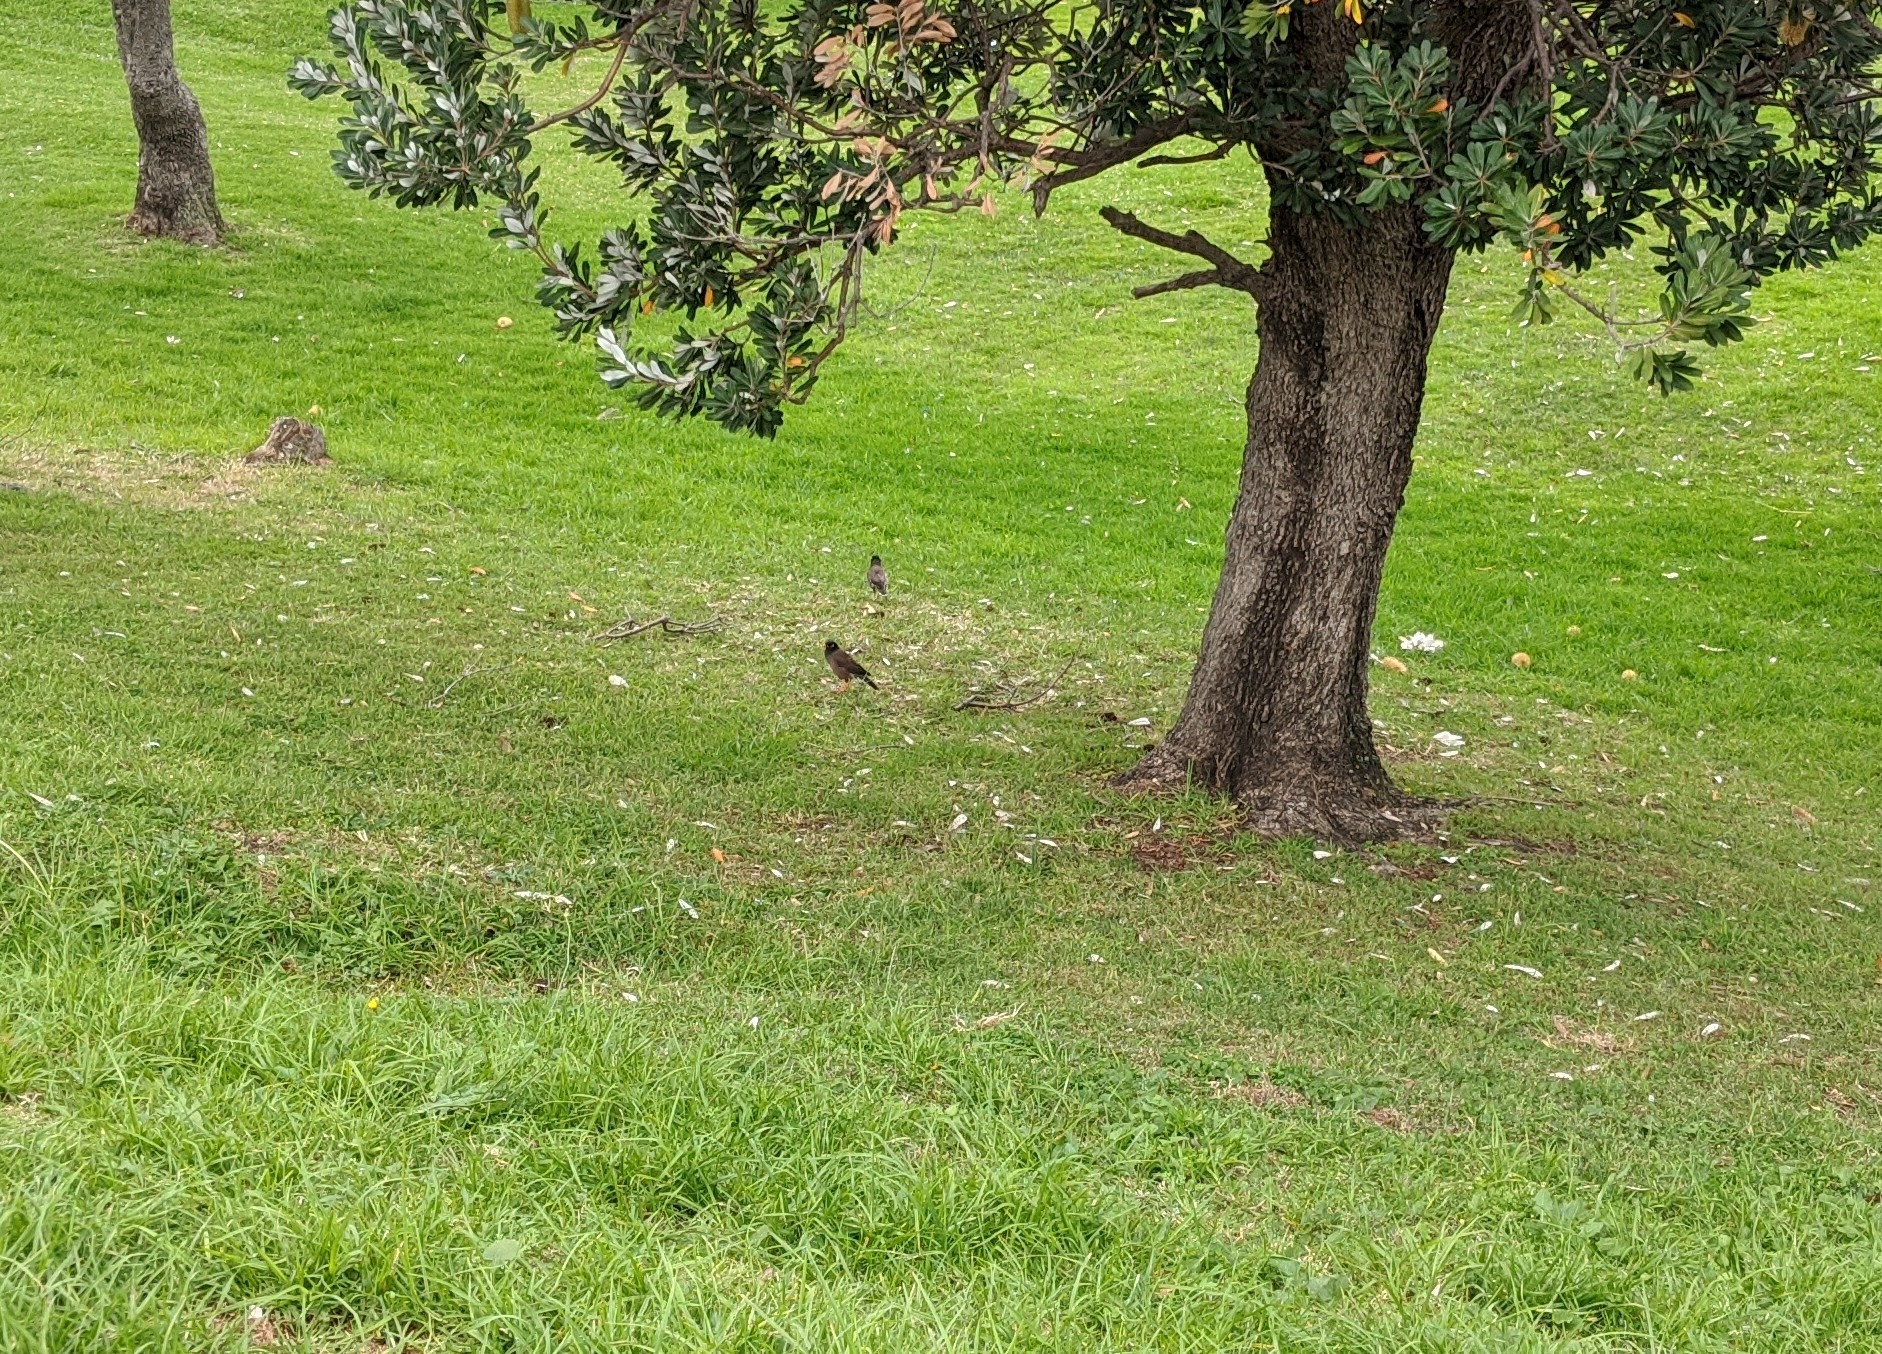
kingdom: Animalia
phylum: Chordata
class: Aves
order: Passeriformes
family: Sturnidae
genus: Acridotheres
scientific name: Acridotheres tristis
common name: Common myna
